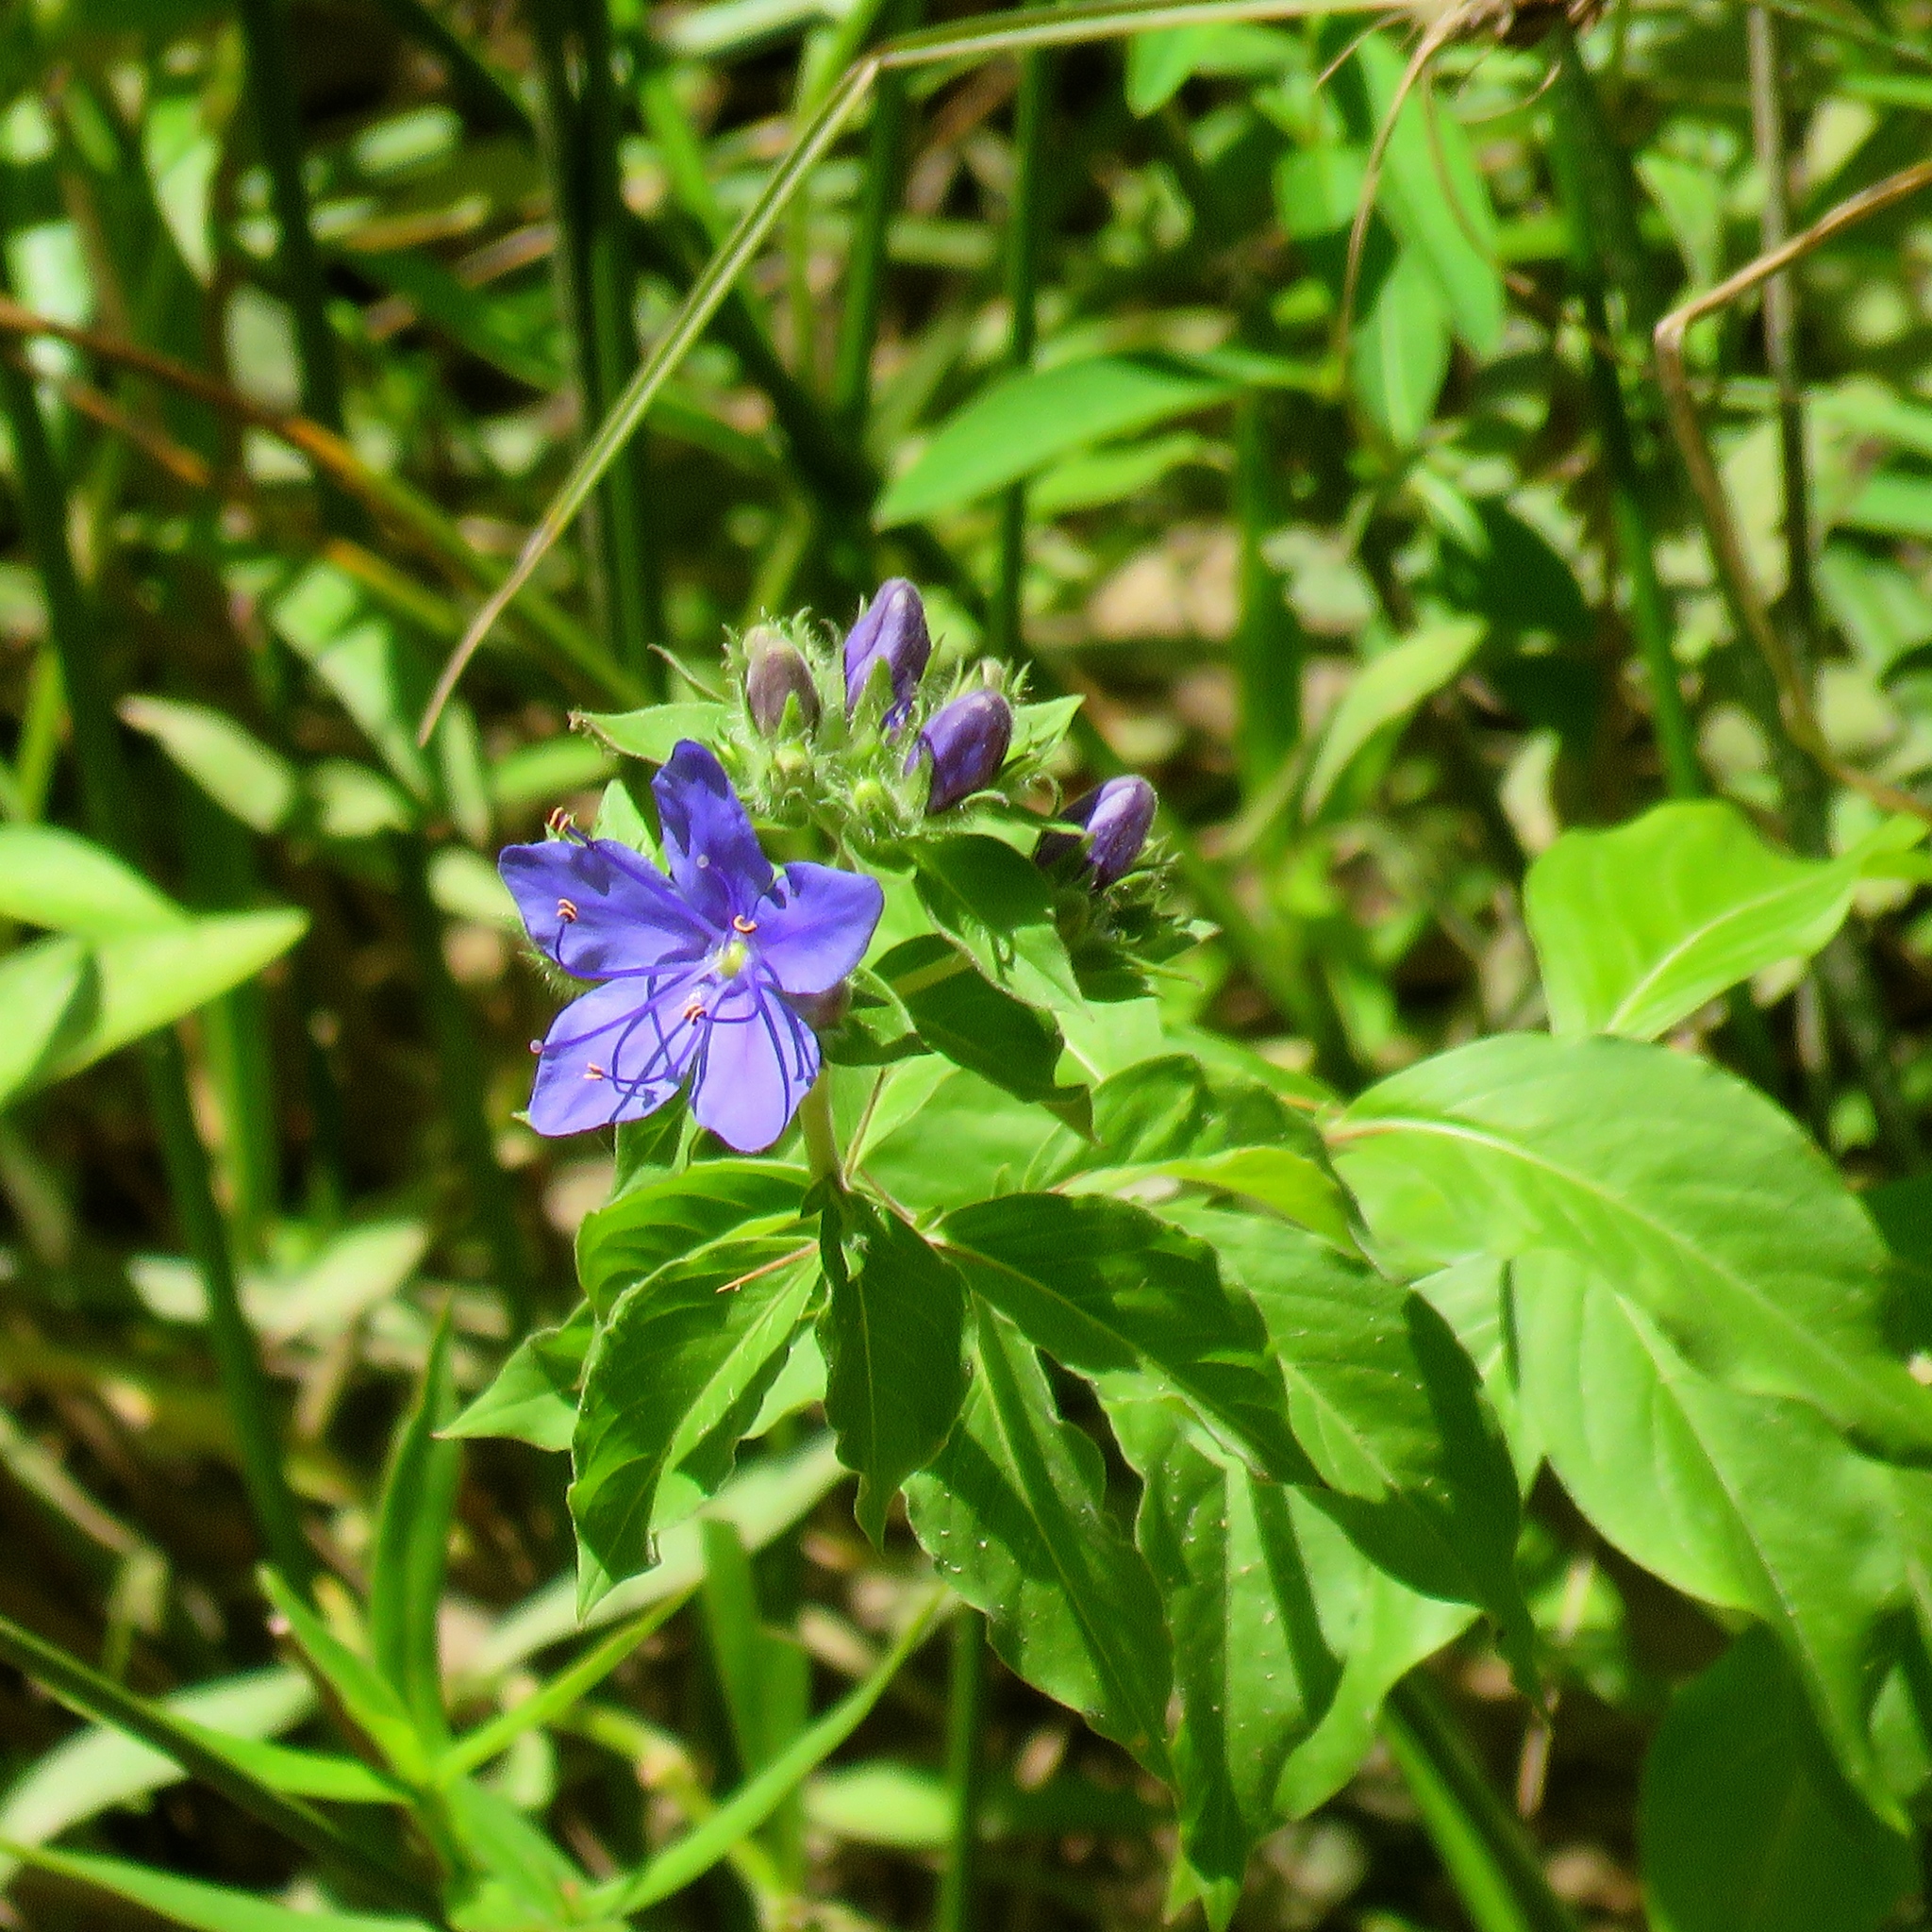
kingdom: Plantae
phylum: Tracheophyta
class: Magnoliopsida
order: Solanales
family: Hydroleaceae
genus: Hydrolea
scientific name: Hydrolea ovata
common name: Ovate false fiddleleaf
